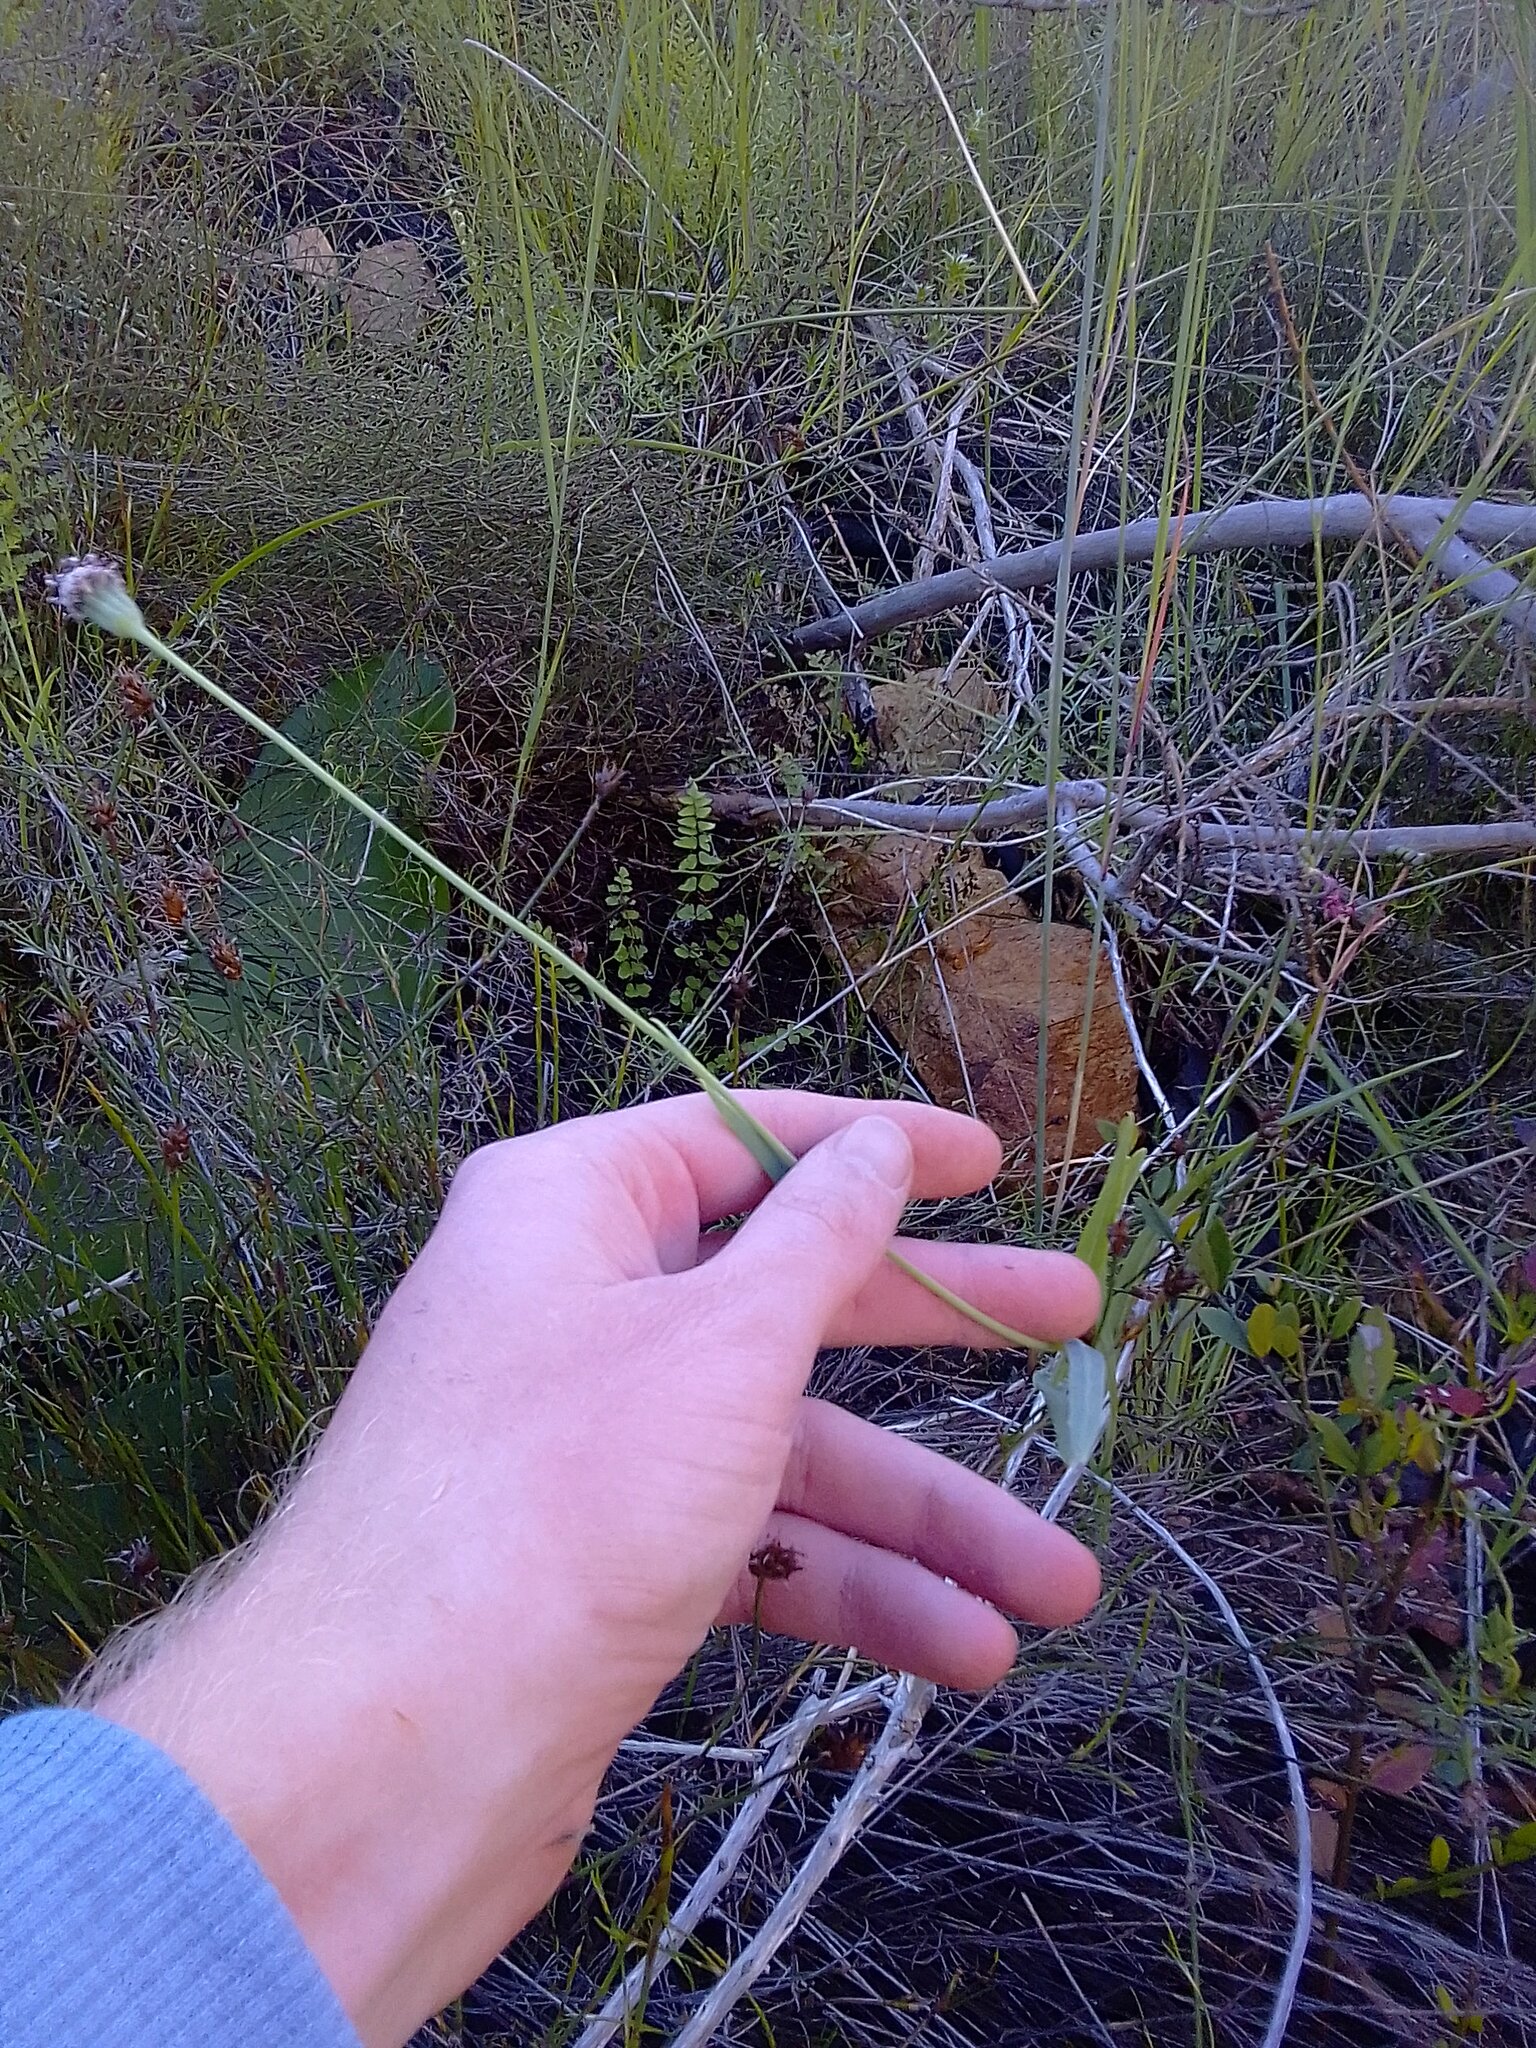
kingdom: Plantae
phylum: Tracheophyta
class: Magnoliopsida
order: Asterales
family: Asteraceae
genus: Othonna
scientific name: Othonna digitata
